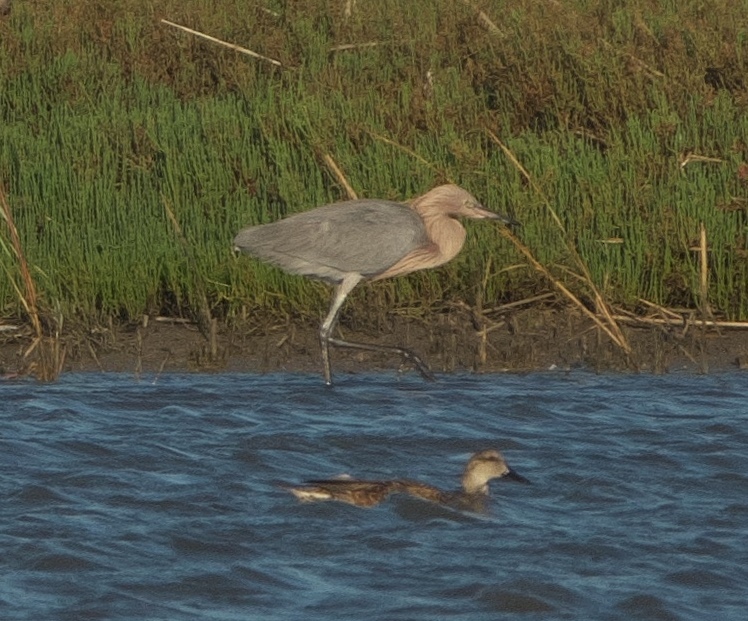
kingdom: Animalia
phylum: Chordata
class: Aves
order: Pelecaniformes
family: Ardeidae
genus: Egretta
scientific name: Egretta rufescens
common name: Reddish egret
